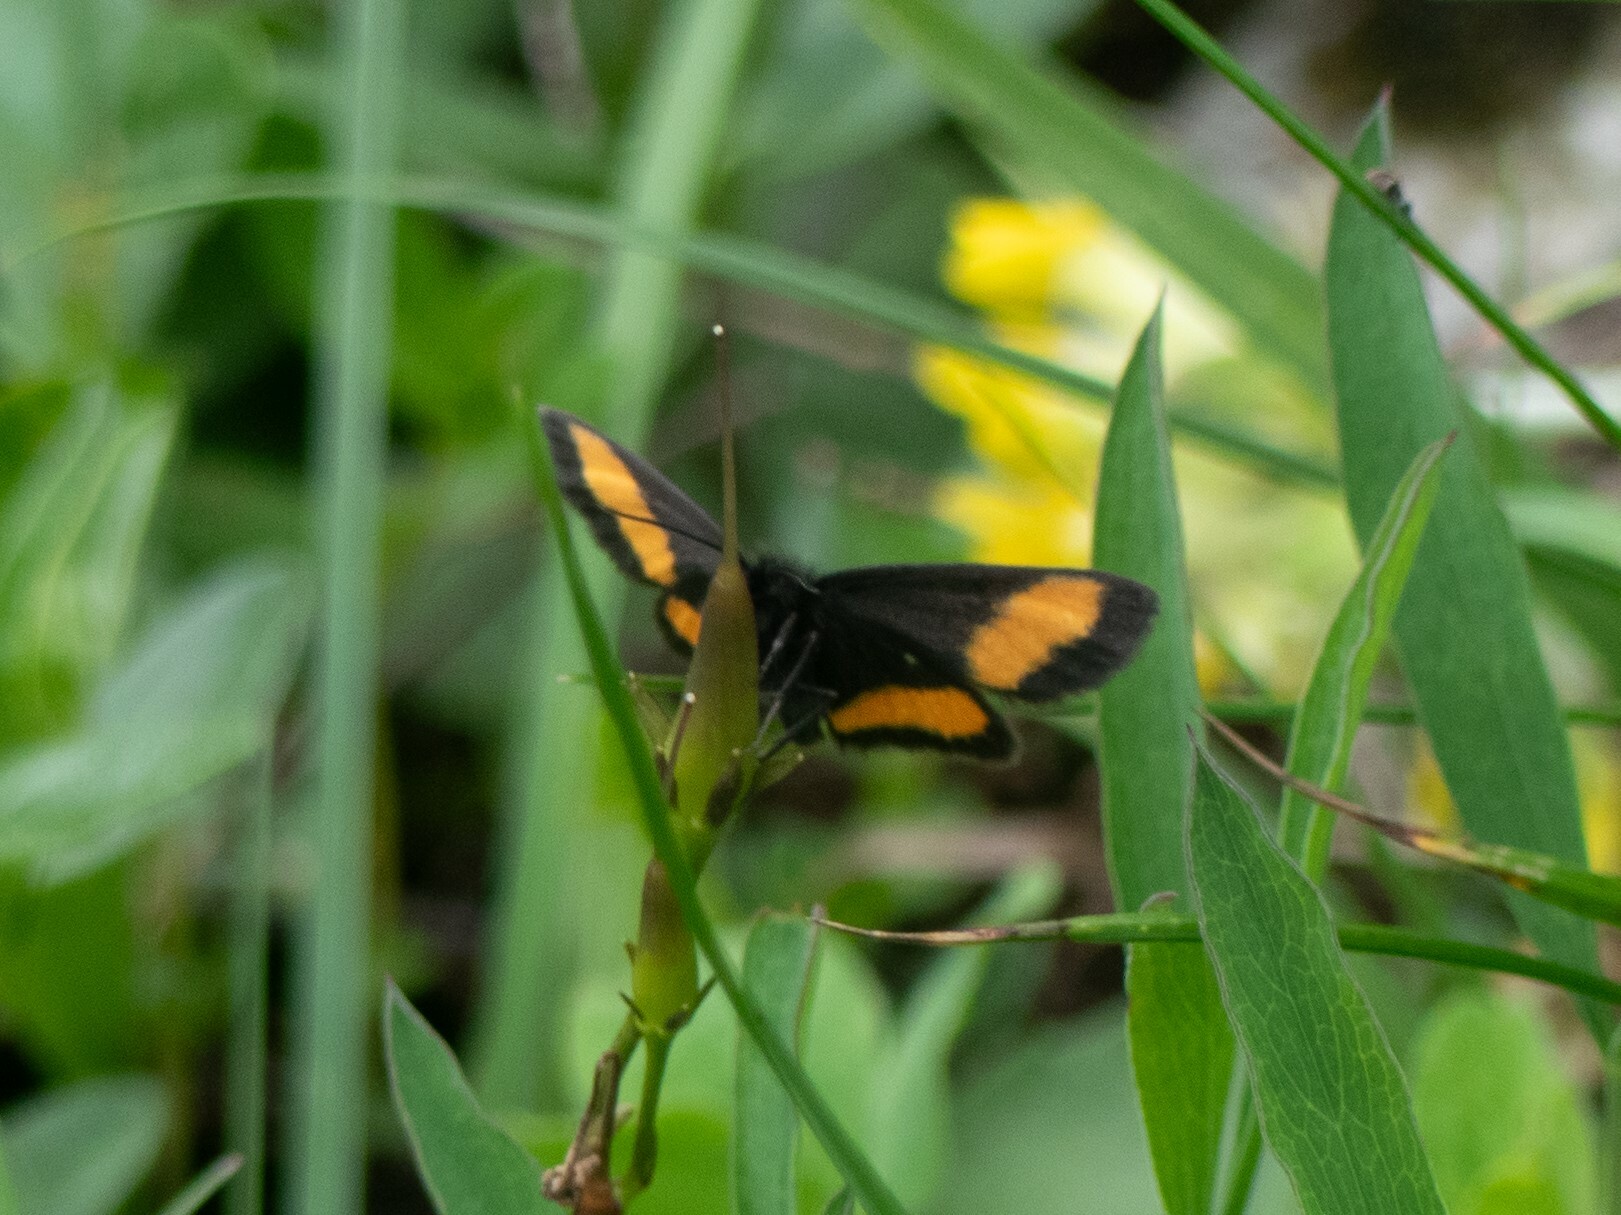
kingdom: Animalia
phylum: Arthropoda
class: Insecta
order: Lepidoptera
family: Geometridae
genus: Psodos
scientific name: Psodos quadrifaria
